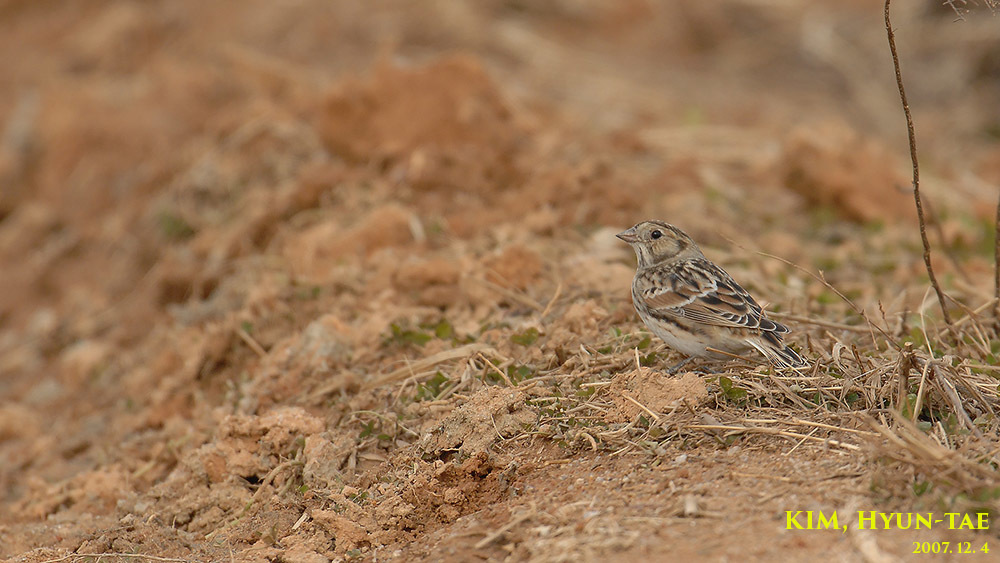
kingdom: Animalia
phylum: Chordata
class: Aves
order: Passeriformes
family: Calcariidae
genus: Calcarius
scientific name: Calcarius lapponicus
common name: Lapland longspur
